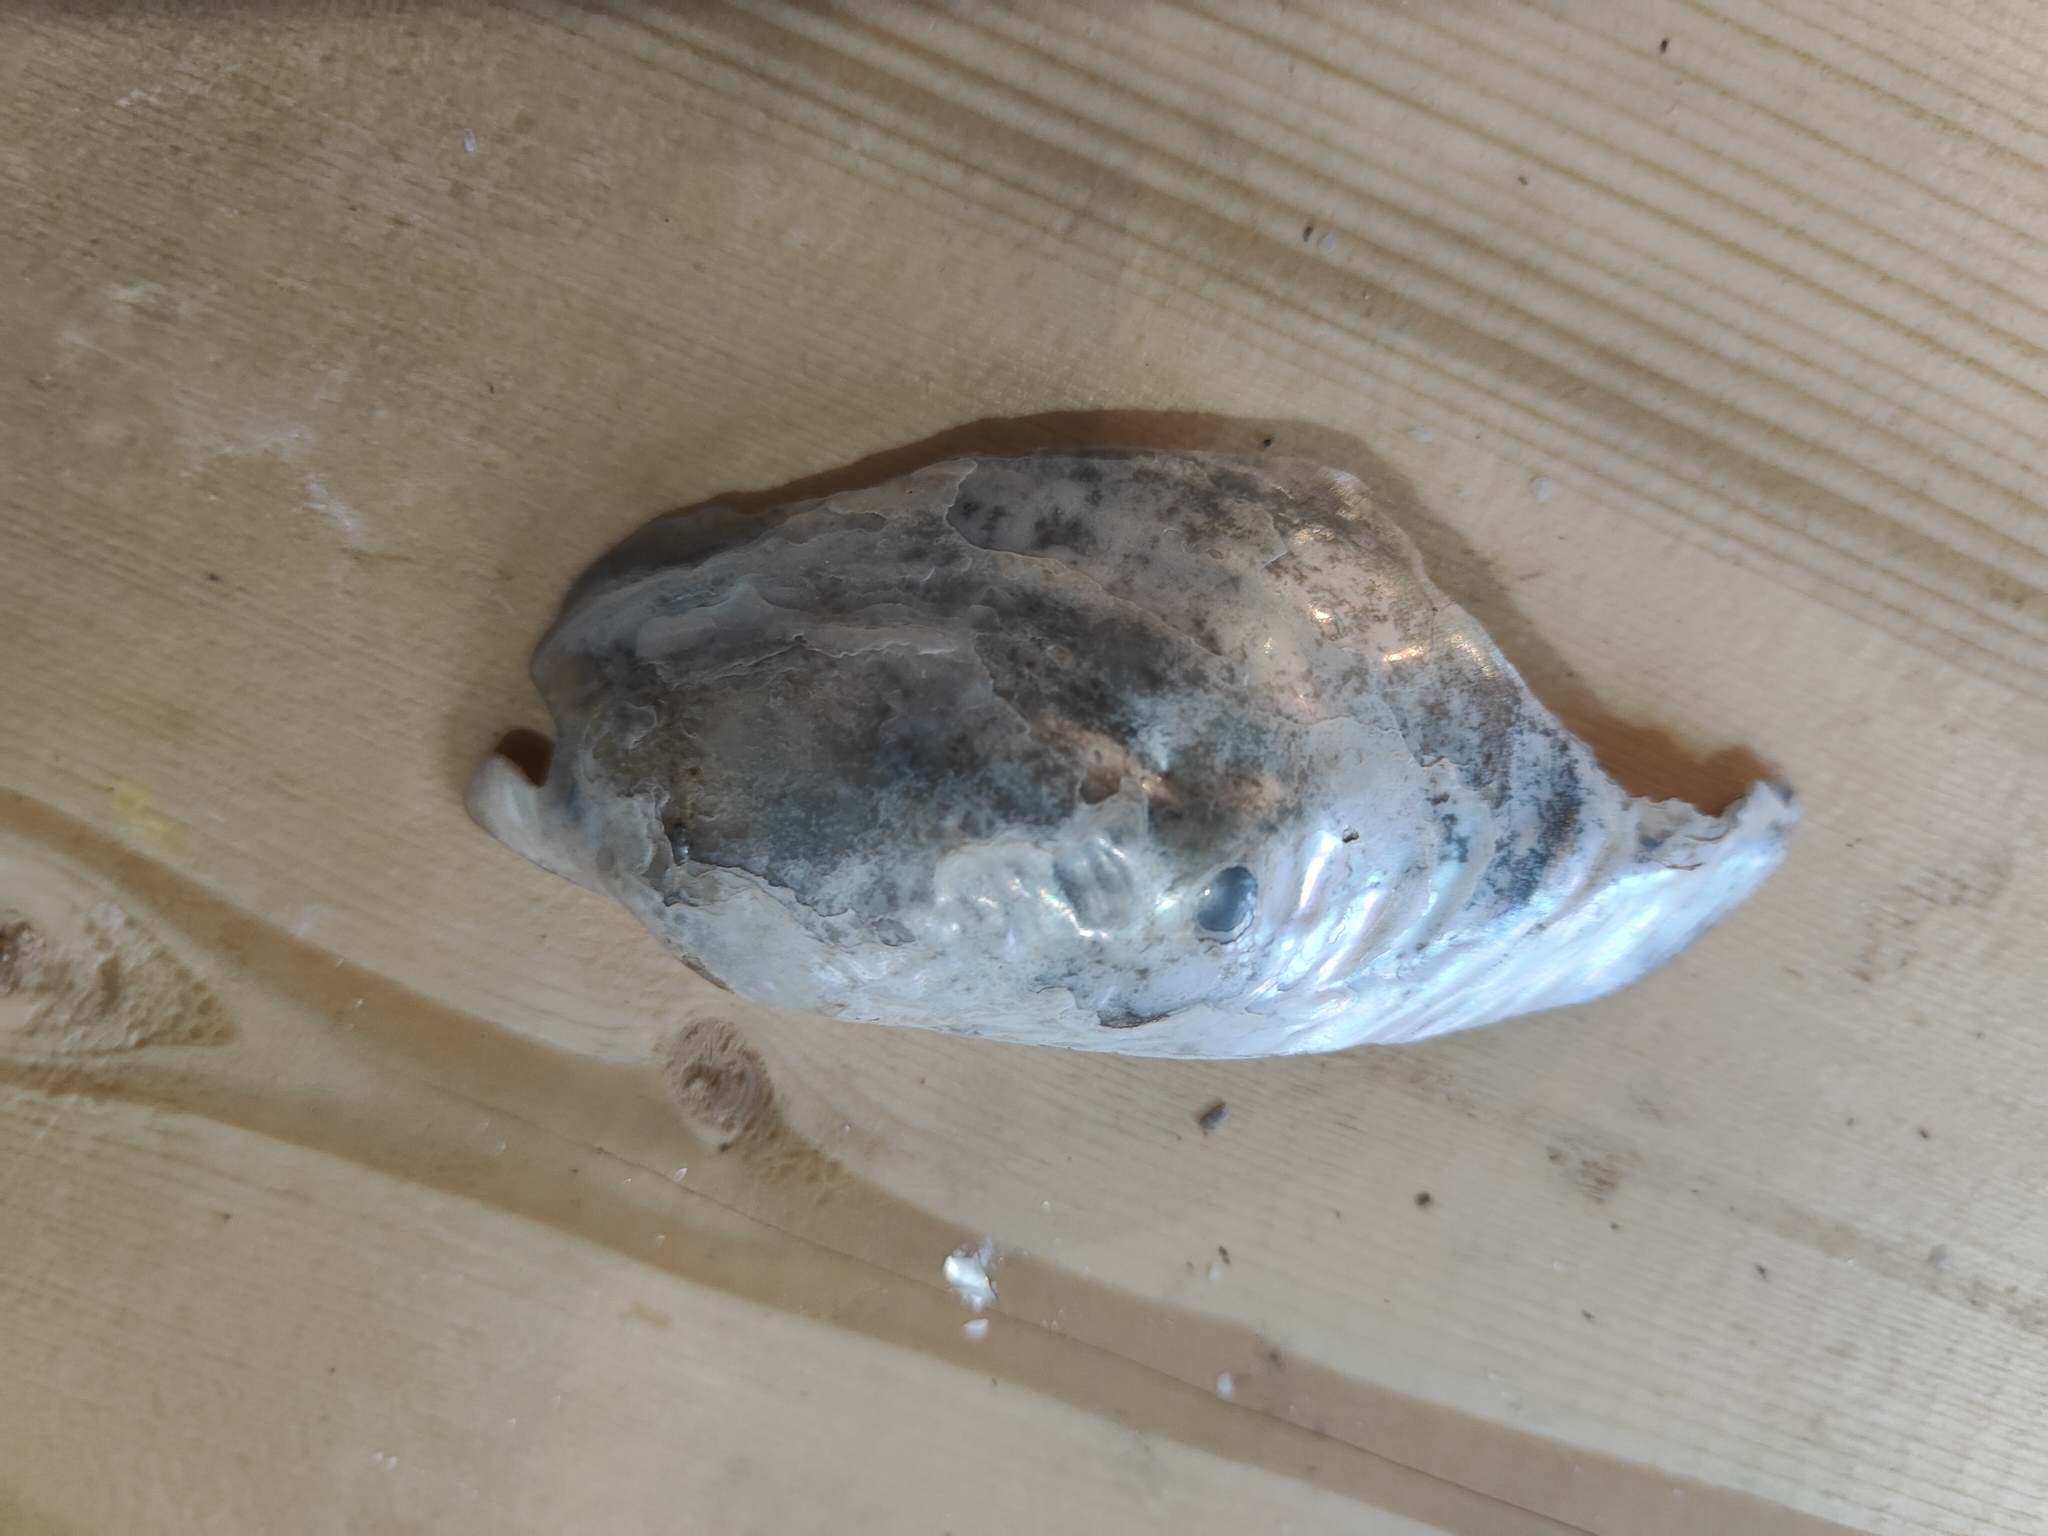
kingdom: Animalia
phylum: Mollusca
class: Bivalvia
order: Unionida
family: Unionidae
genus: Potamilus
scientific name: Potamilus fragilis
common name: Fragile papershell
